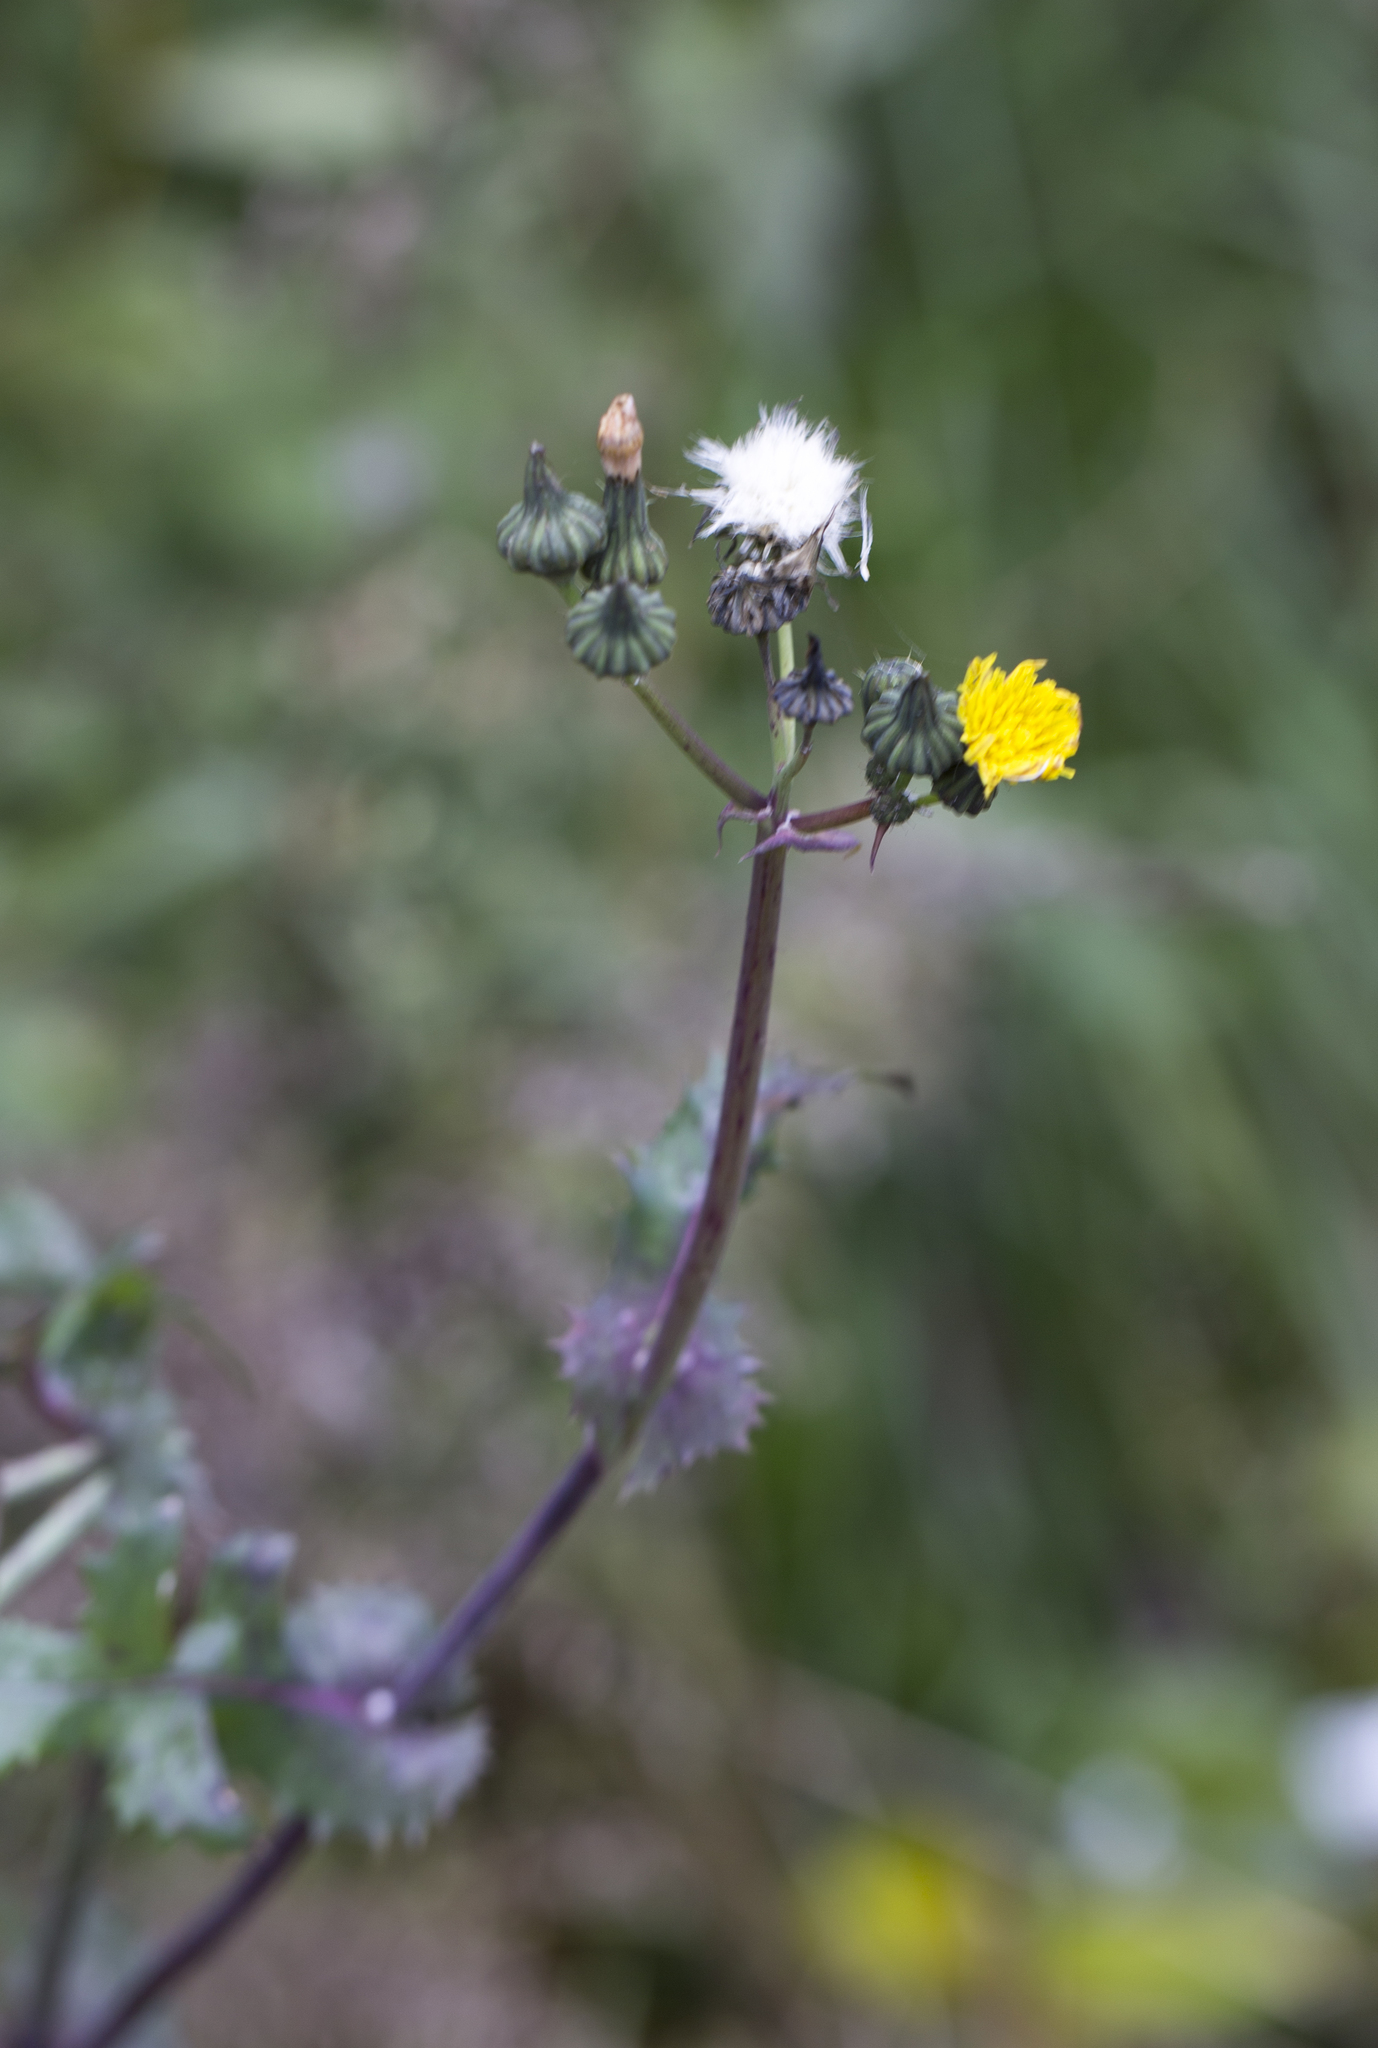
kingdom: Plantae
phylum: Tracheophyta
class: Magnoliopsida
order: Asterales
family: Asteraceae
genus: Sonchus
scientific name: Sonchus oleraceus
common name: Common sowthistle
